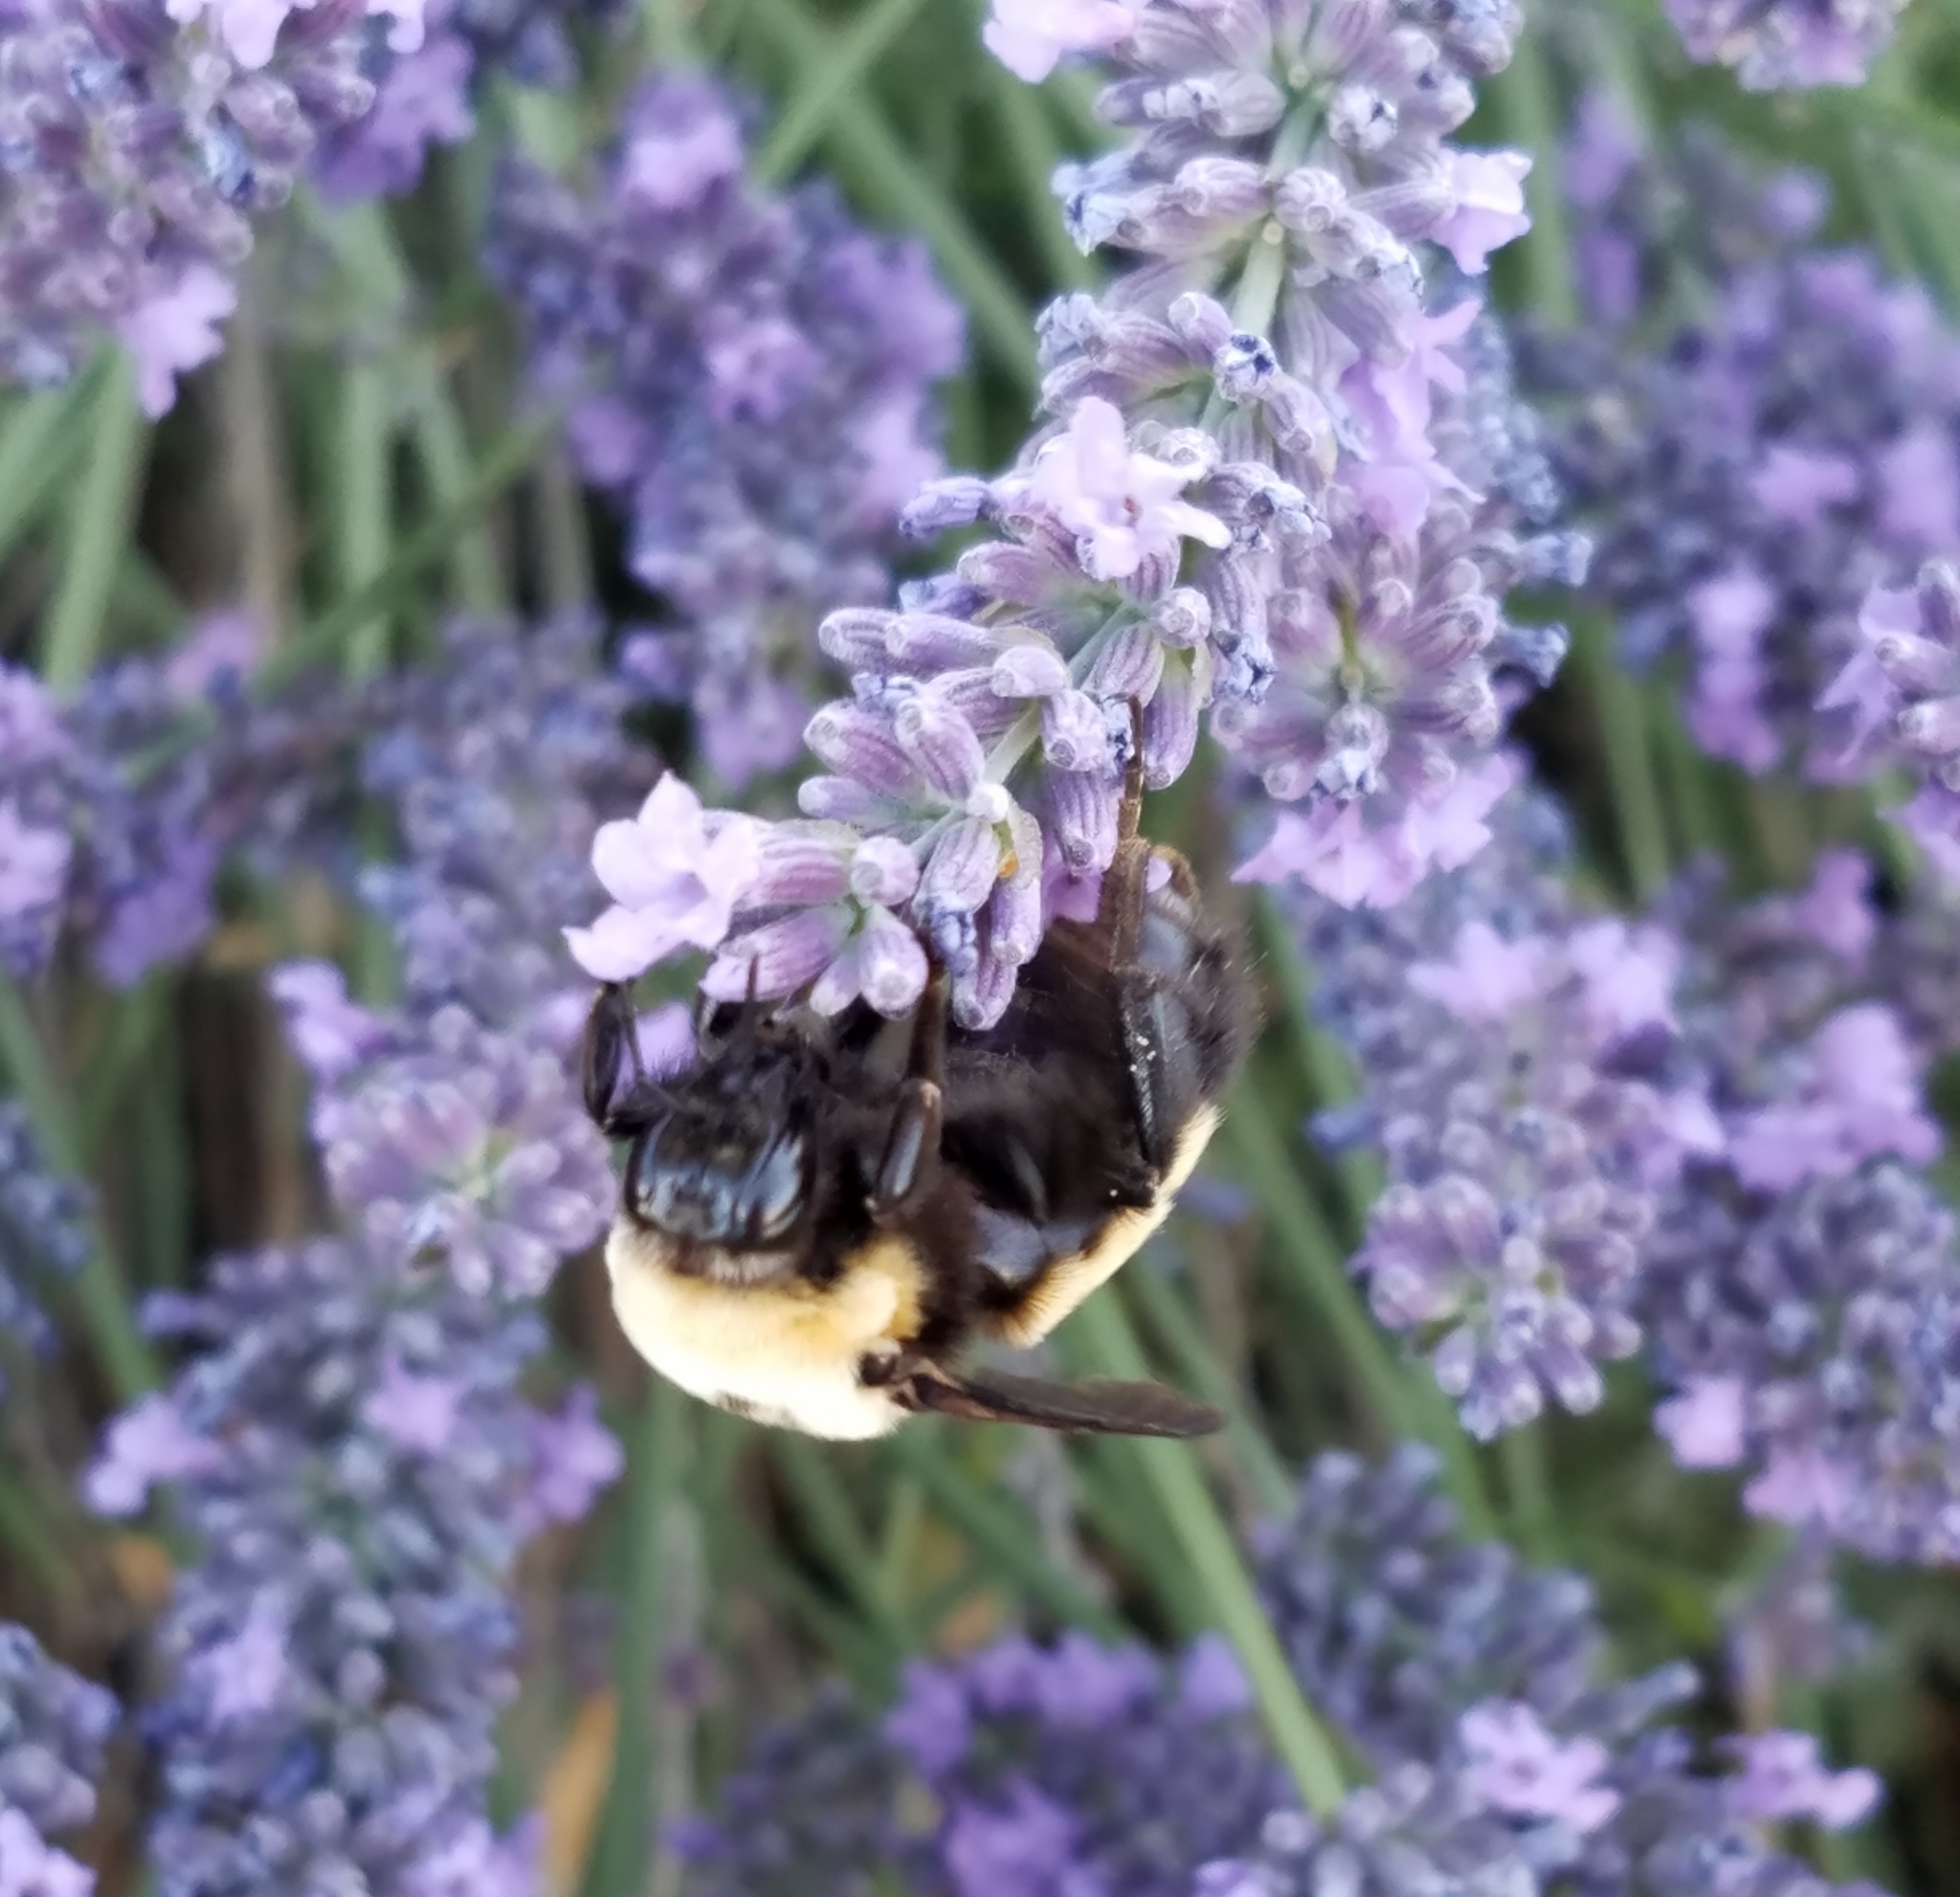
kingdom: Animalia
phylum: Arthropoda
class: Insecta
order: Hymenoptera
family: Apidae
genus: Bombus
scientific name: Bombus nevadensis
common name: Nevada bumble bee
